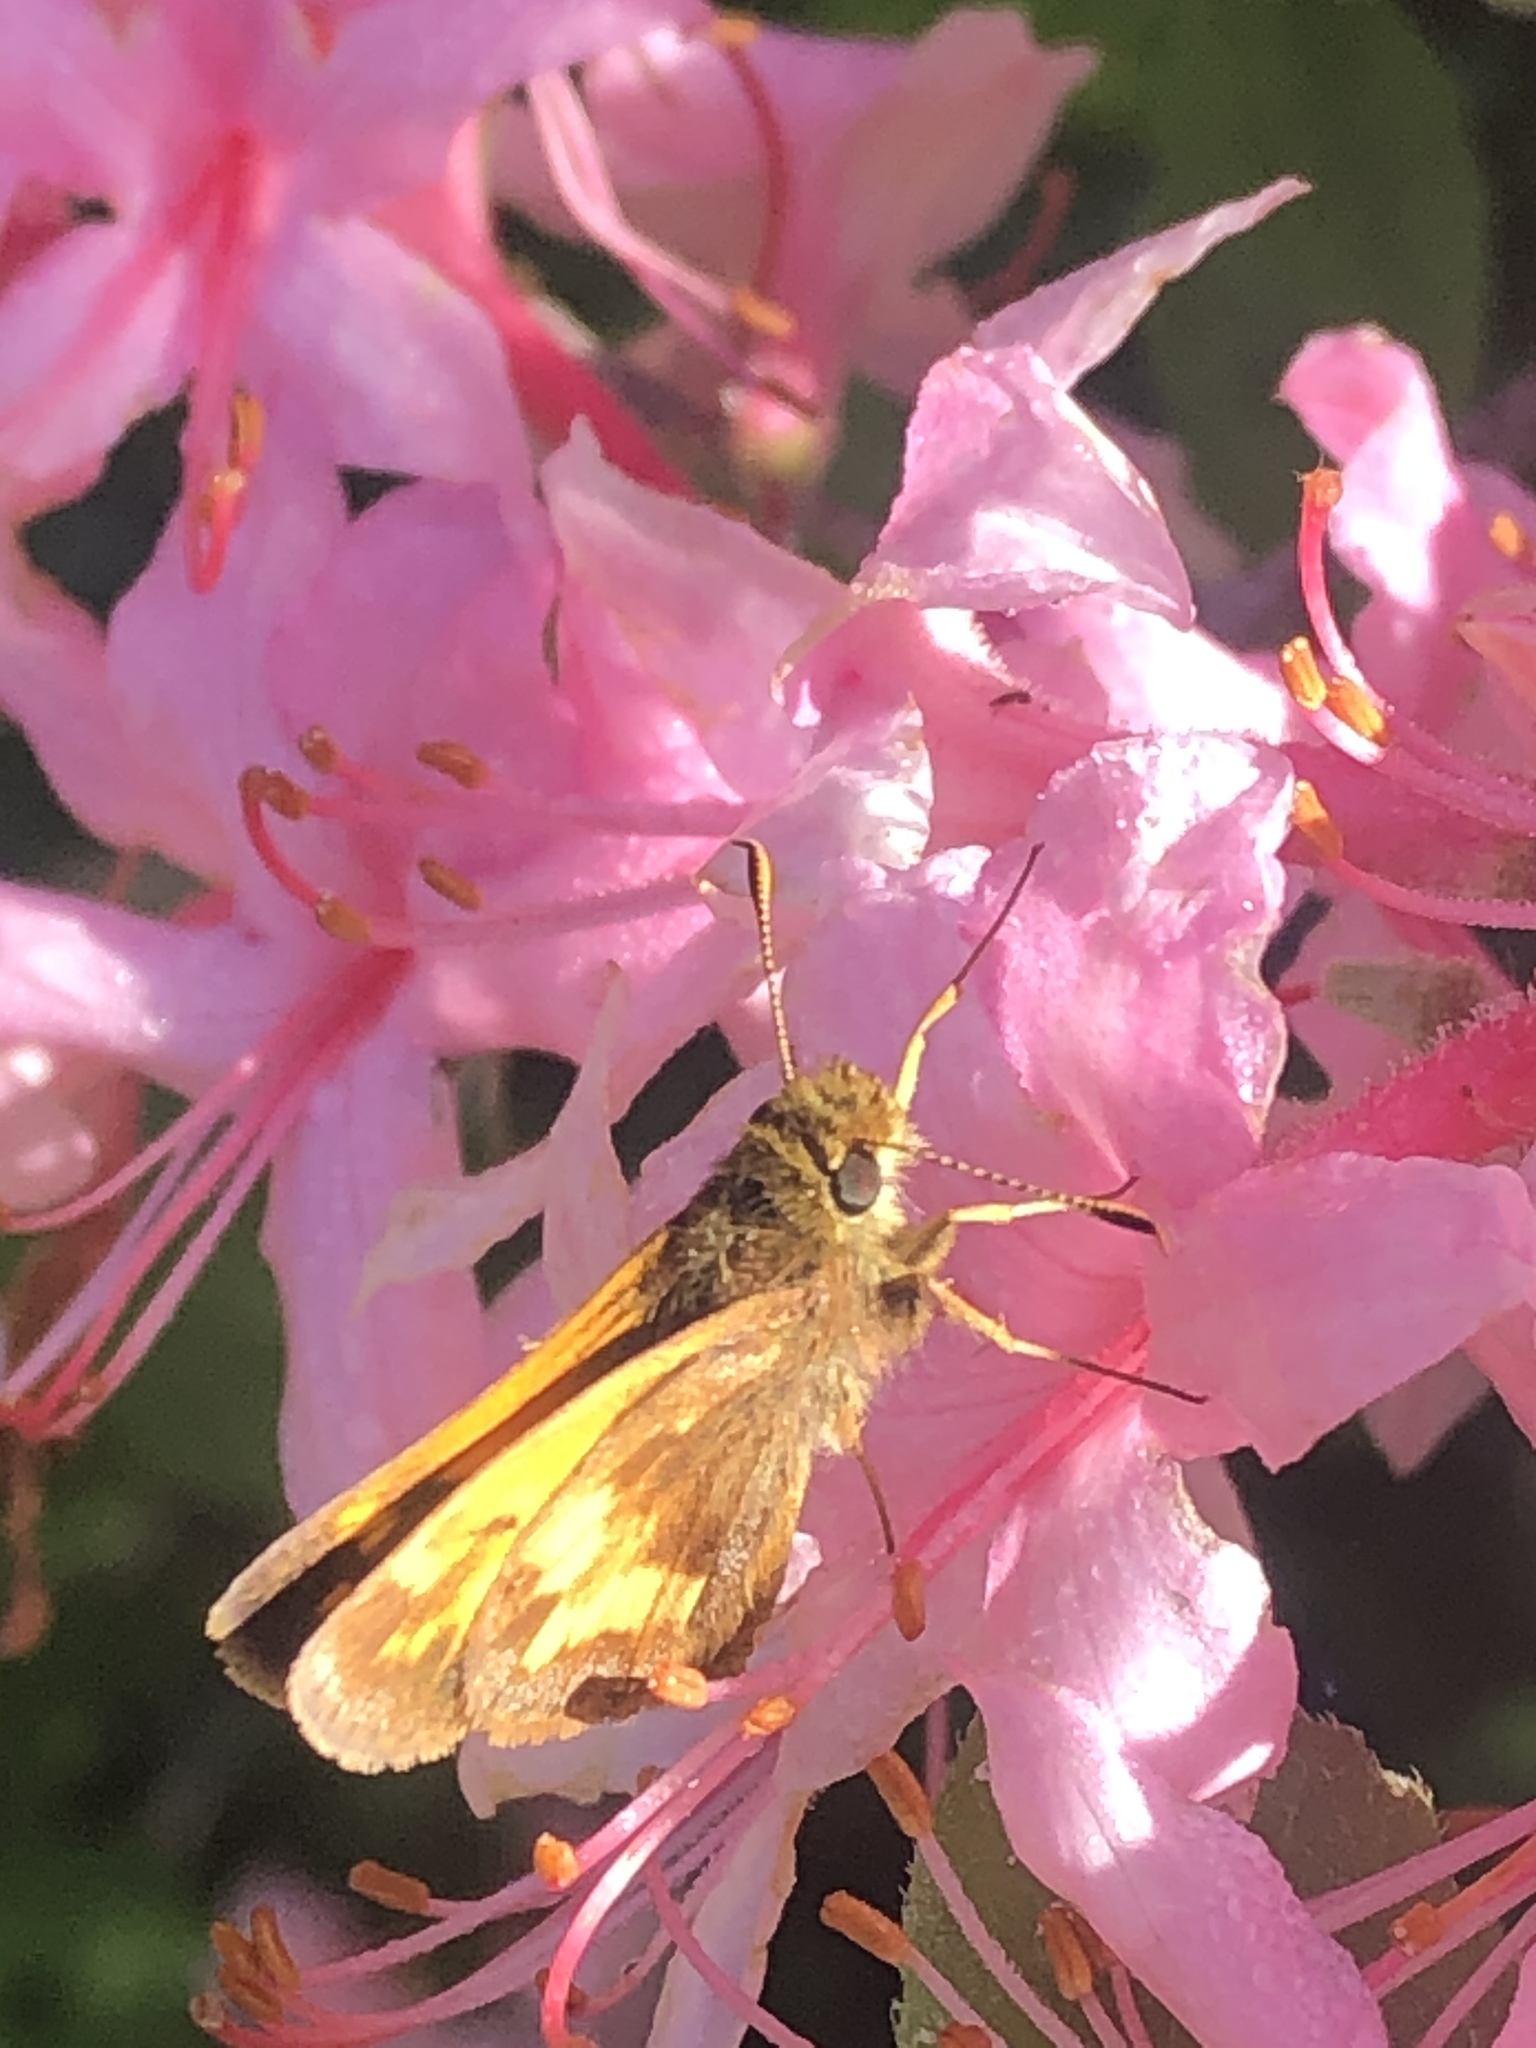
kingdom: Animalia
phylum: Arthropoda
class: Insecta
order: Lepidoptera
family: Hesperiidae
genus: Lon
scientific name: Lon hobomok
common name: Hobomok skipper
